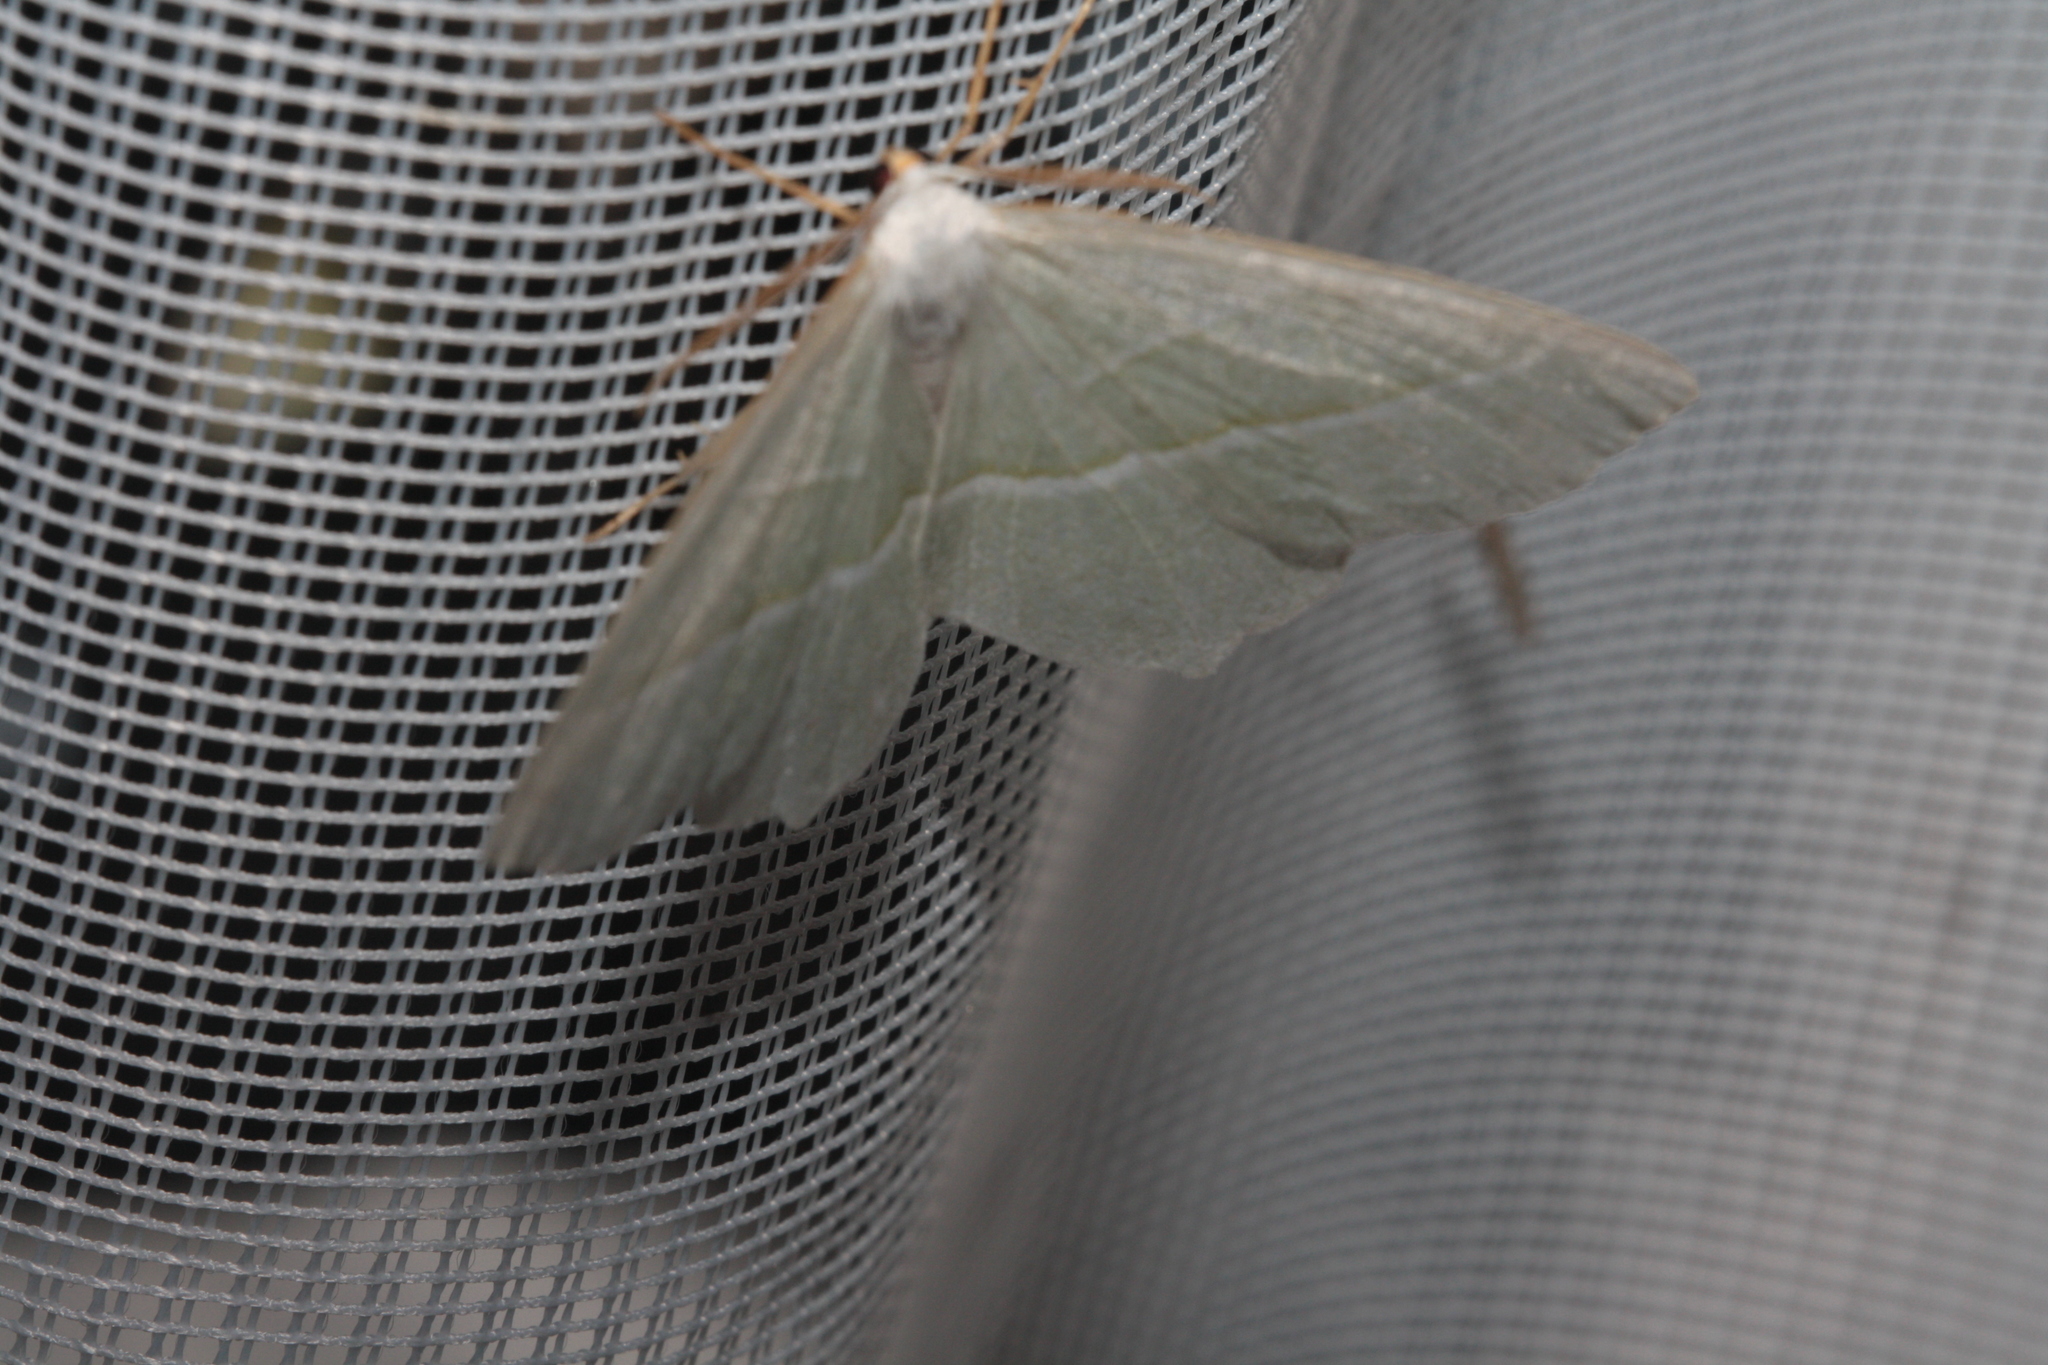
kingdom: Animalia
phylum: Arthropoda
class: Insecta
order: Lepidoptera
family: Geometridae
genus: Campaea
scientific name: Campaea margaritaria
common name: Light emerald
